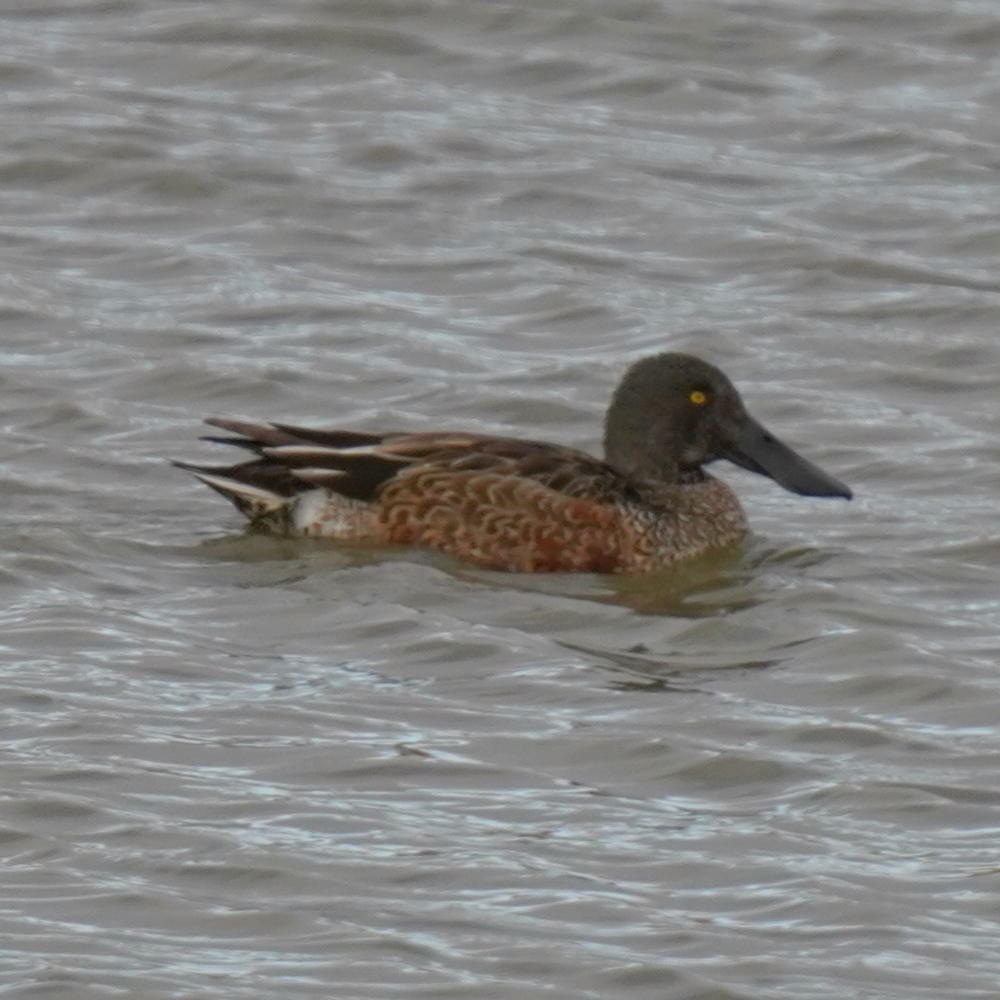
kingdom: Animalia
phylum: Chordata
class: Aves
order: Anseriformes
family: Anatidae
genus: Spatula
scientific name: Spatula clypeata
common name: Northern shoveler
